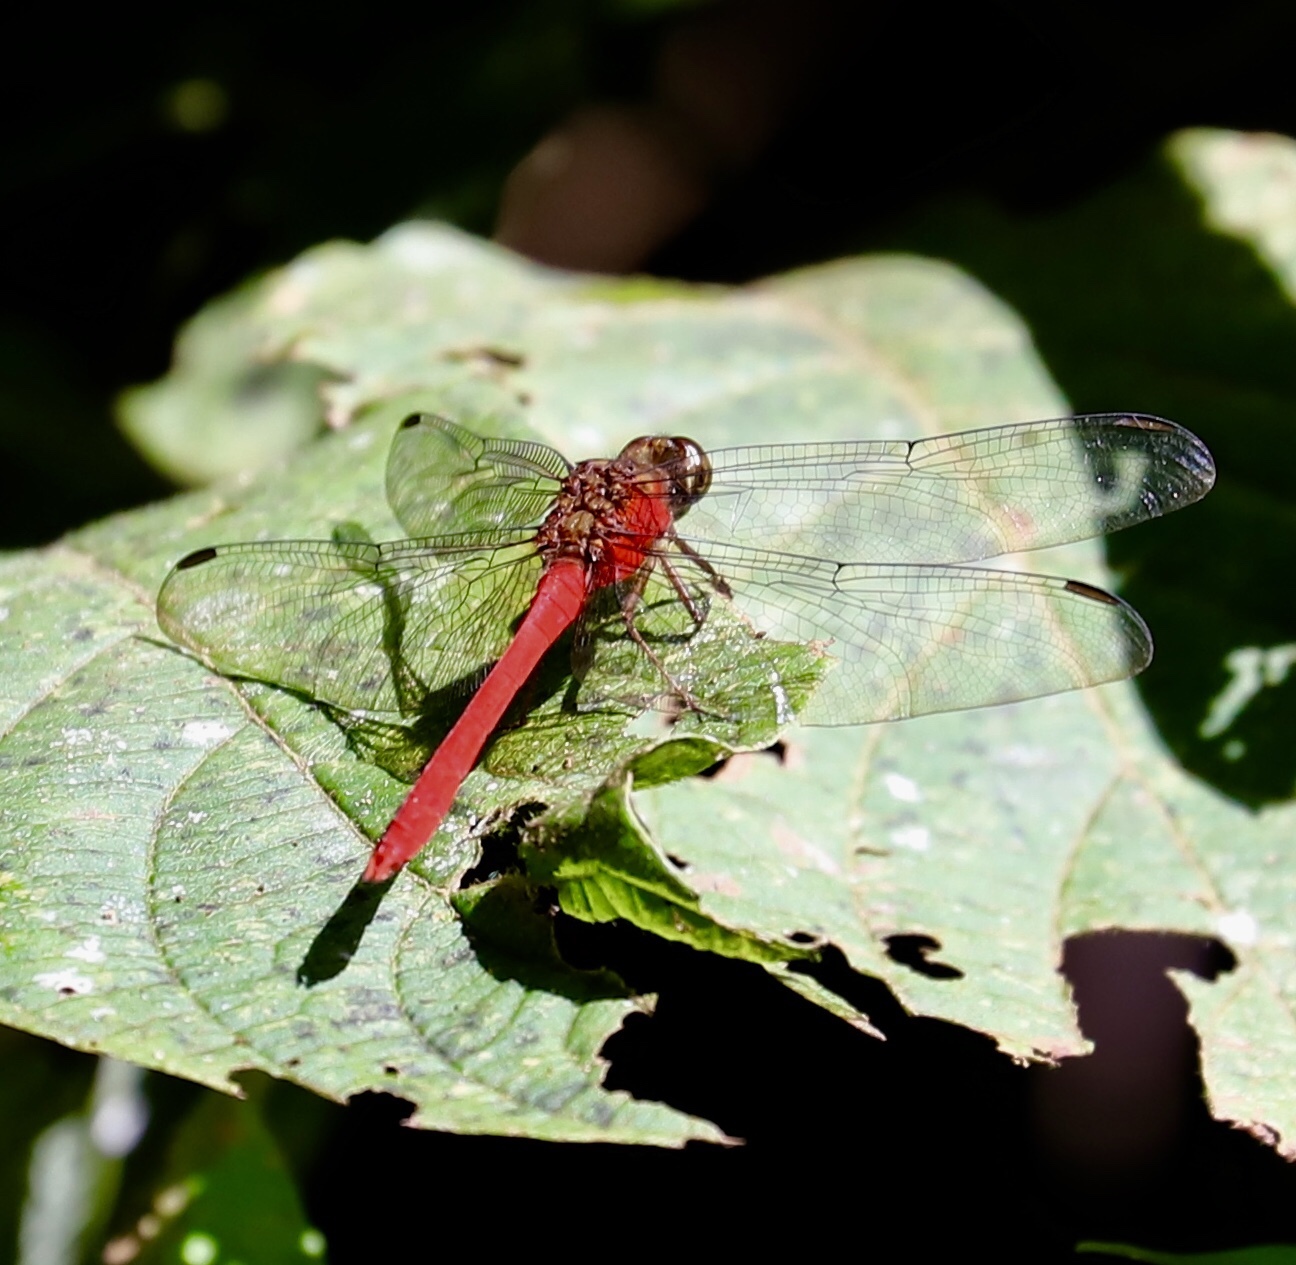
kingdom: Animalia
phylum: Arthropoda
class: Insecta
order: Odonata
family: Libellulidae
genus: Rhodopygia
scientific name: Rhodopygia hinei
